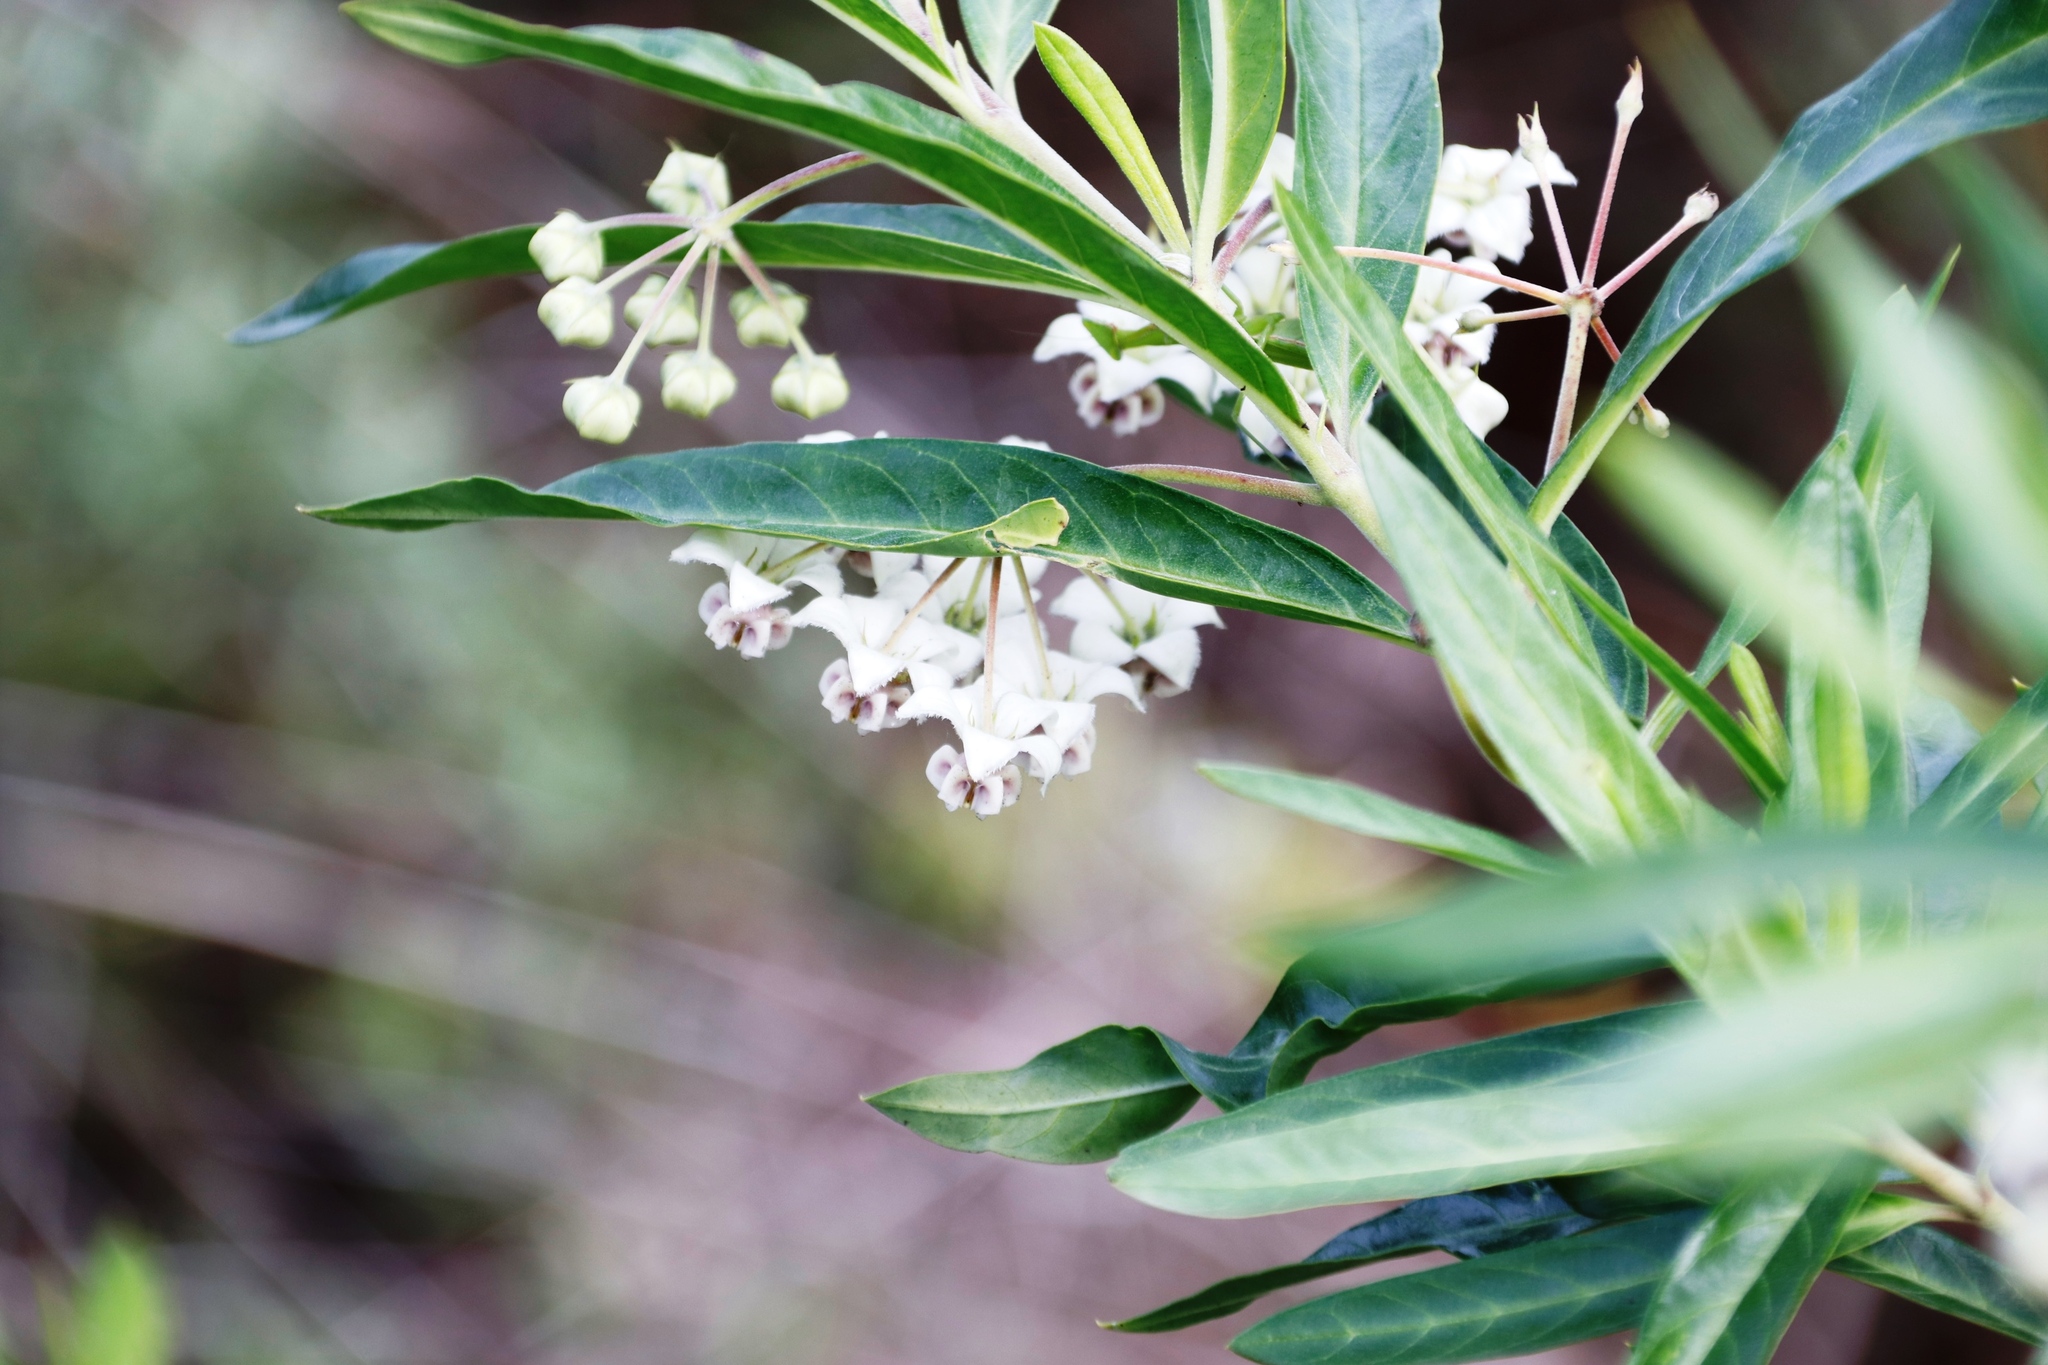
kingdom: Plantae
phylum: Tracheophyta
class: Magnoliopsida
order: Gentianales
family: Apocynaceae
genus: Gomphocarpus
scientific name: Gomphocarpus physocarpus
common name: Balloon cotton bush
